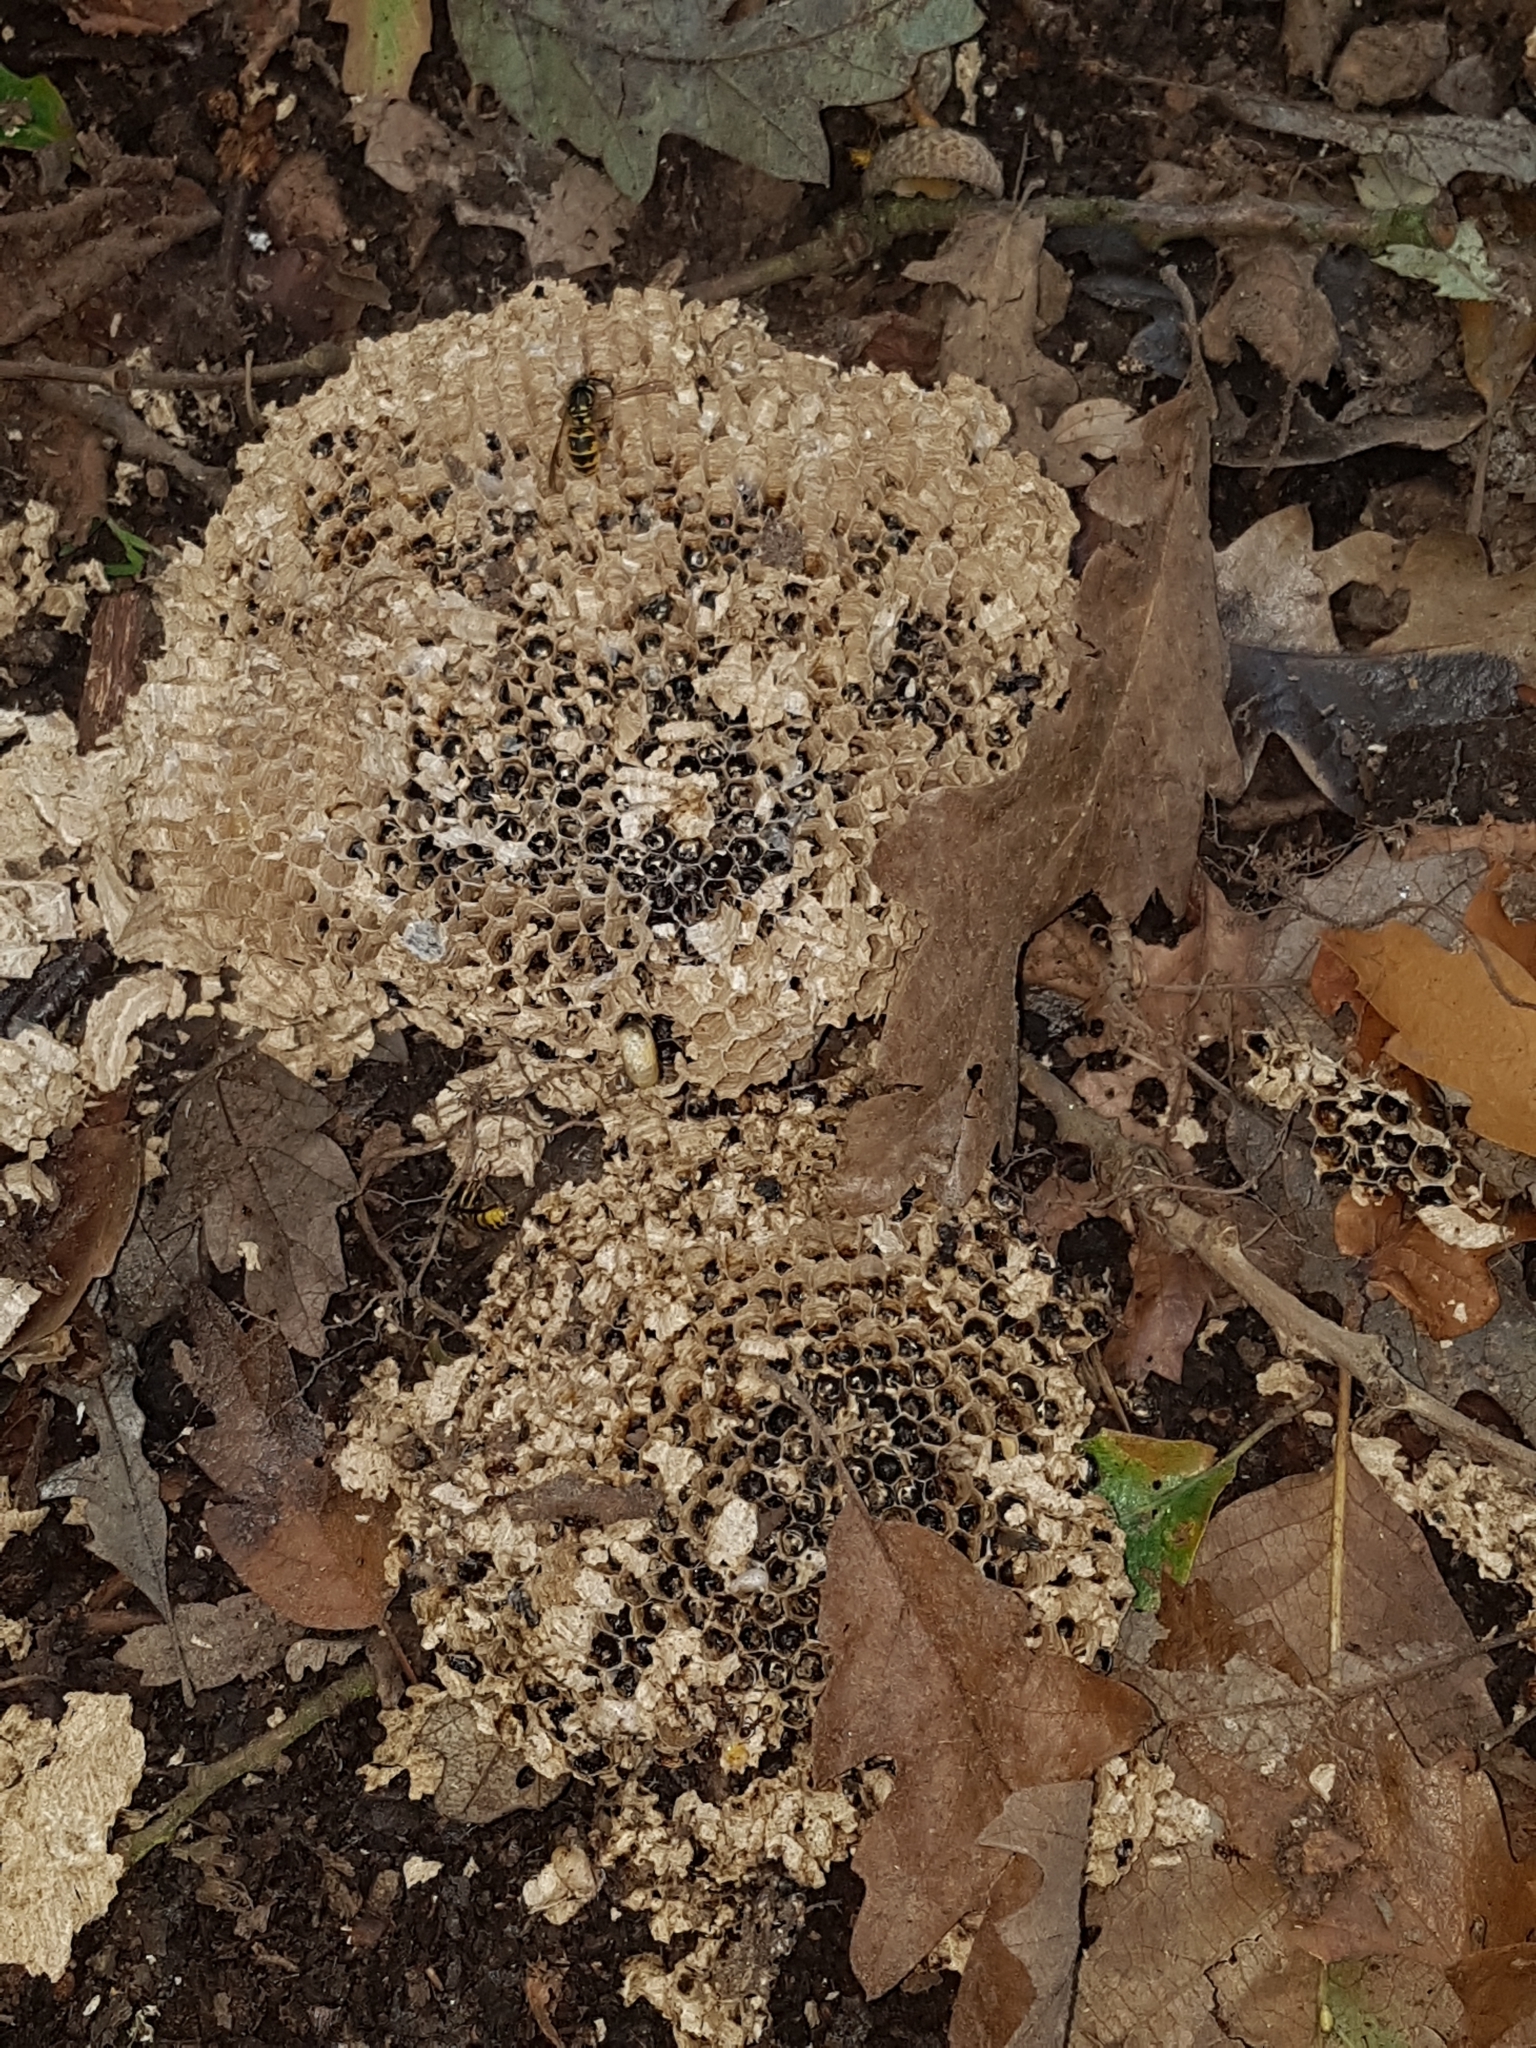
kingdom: Animalia
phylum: Arthropoda
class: Insecta
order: Hymenoptera
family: Vespidae
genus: Vespula
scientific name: Vespula vulgaris
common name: Common wasp
